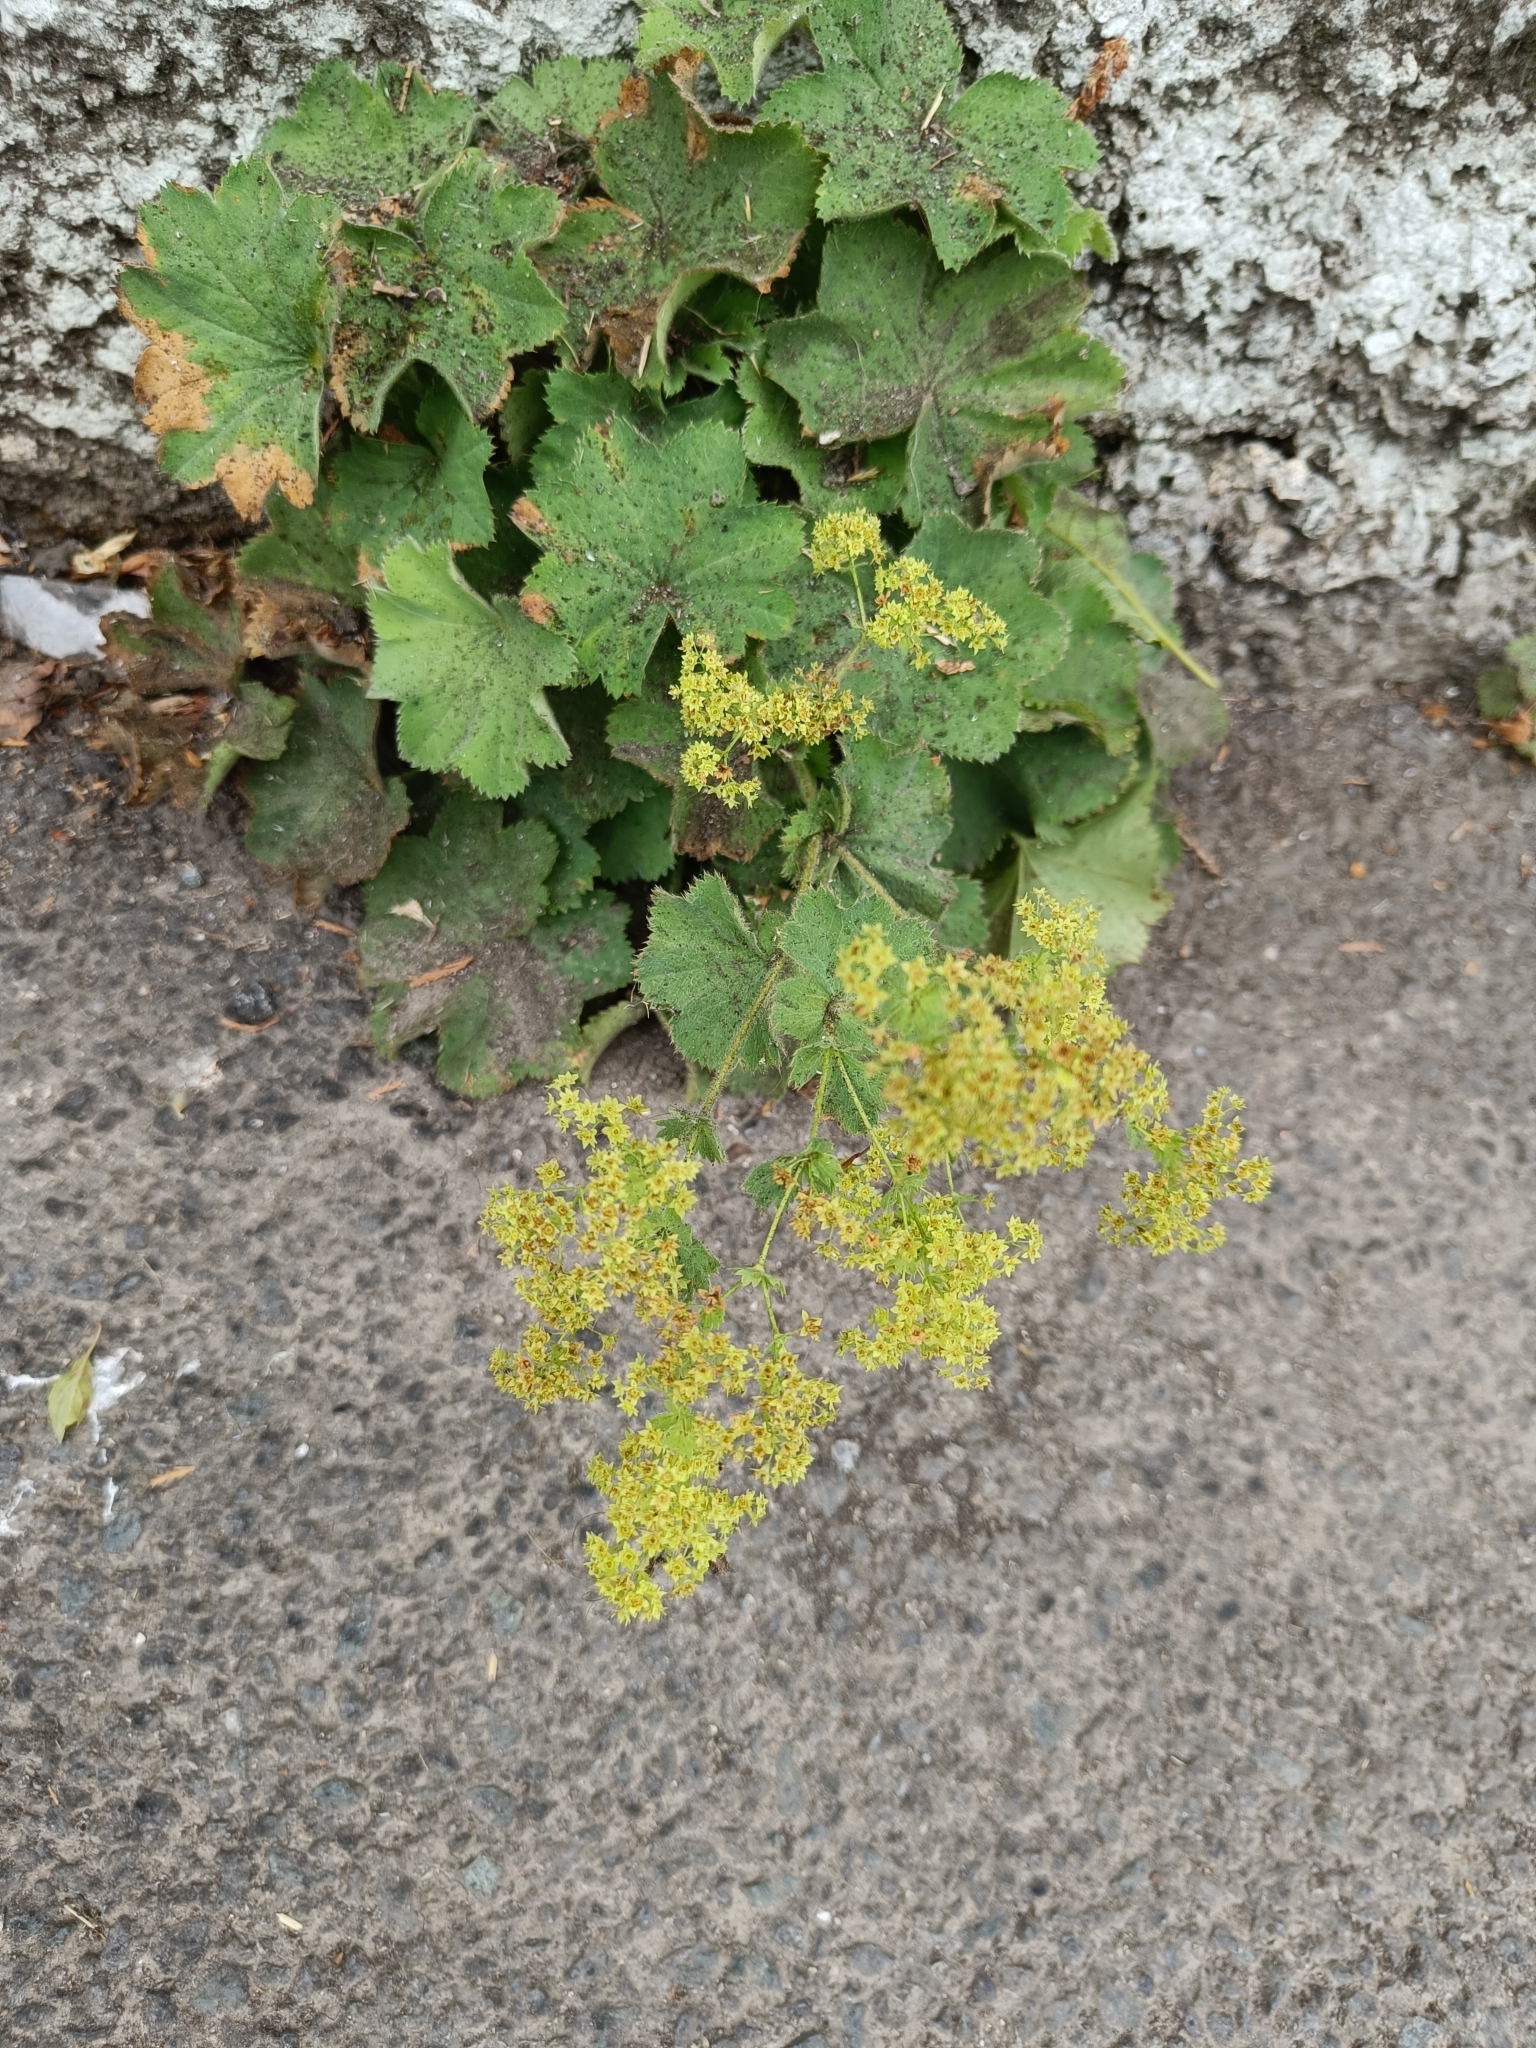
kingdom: Plantae
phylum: Tracheophyta
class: Magnoliopsida
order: Rosales
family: Rosaceae
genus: Alchemilla
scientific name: Alchemilla mollis
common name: Lady's-mantle
